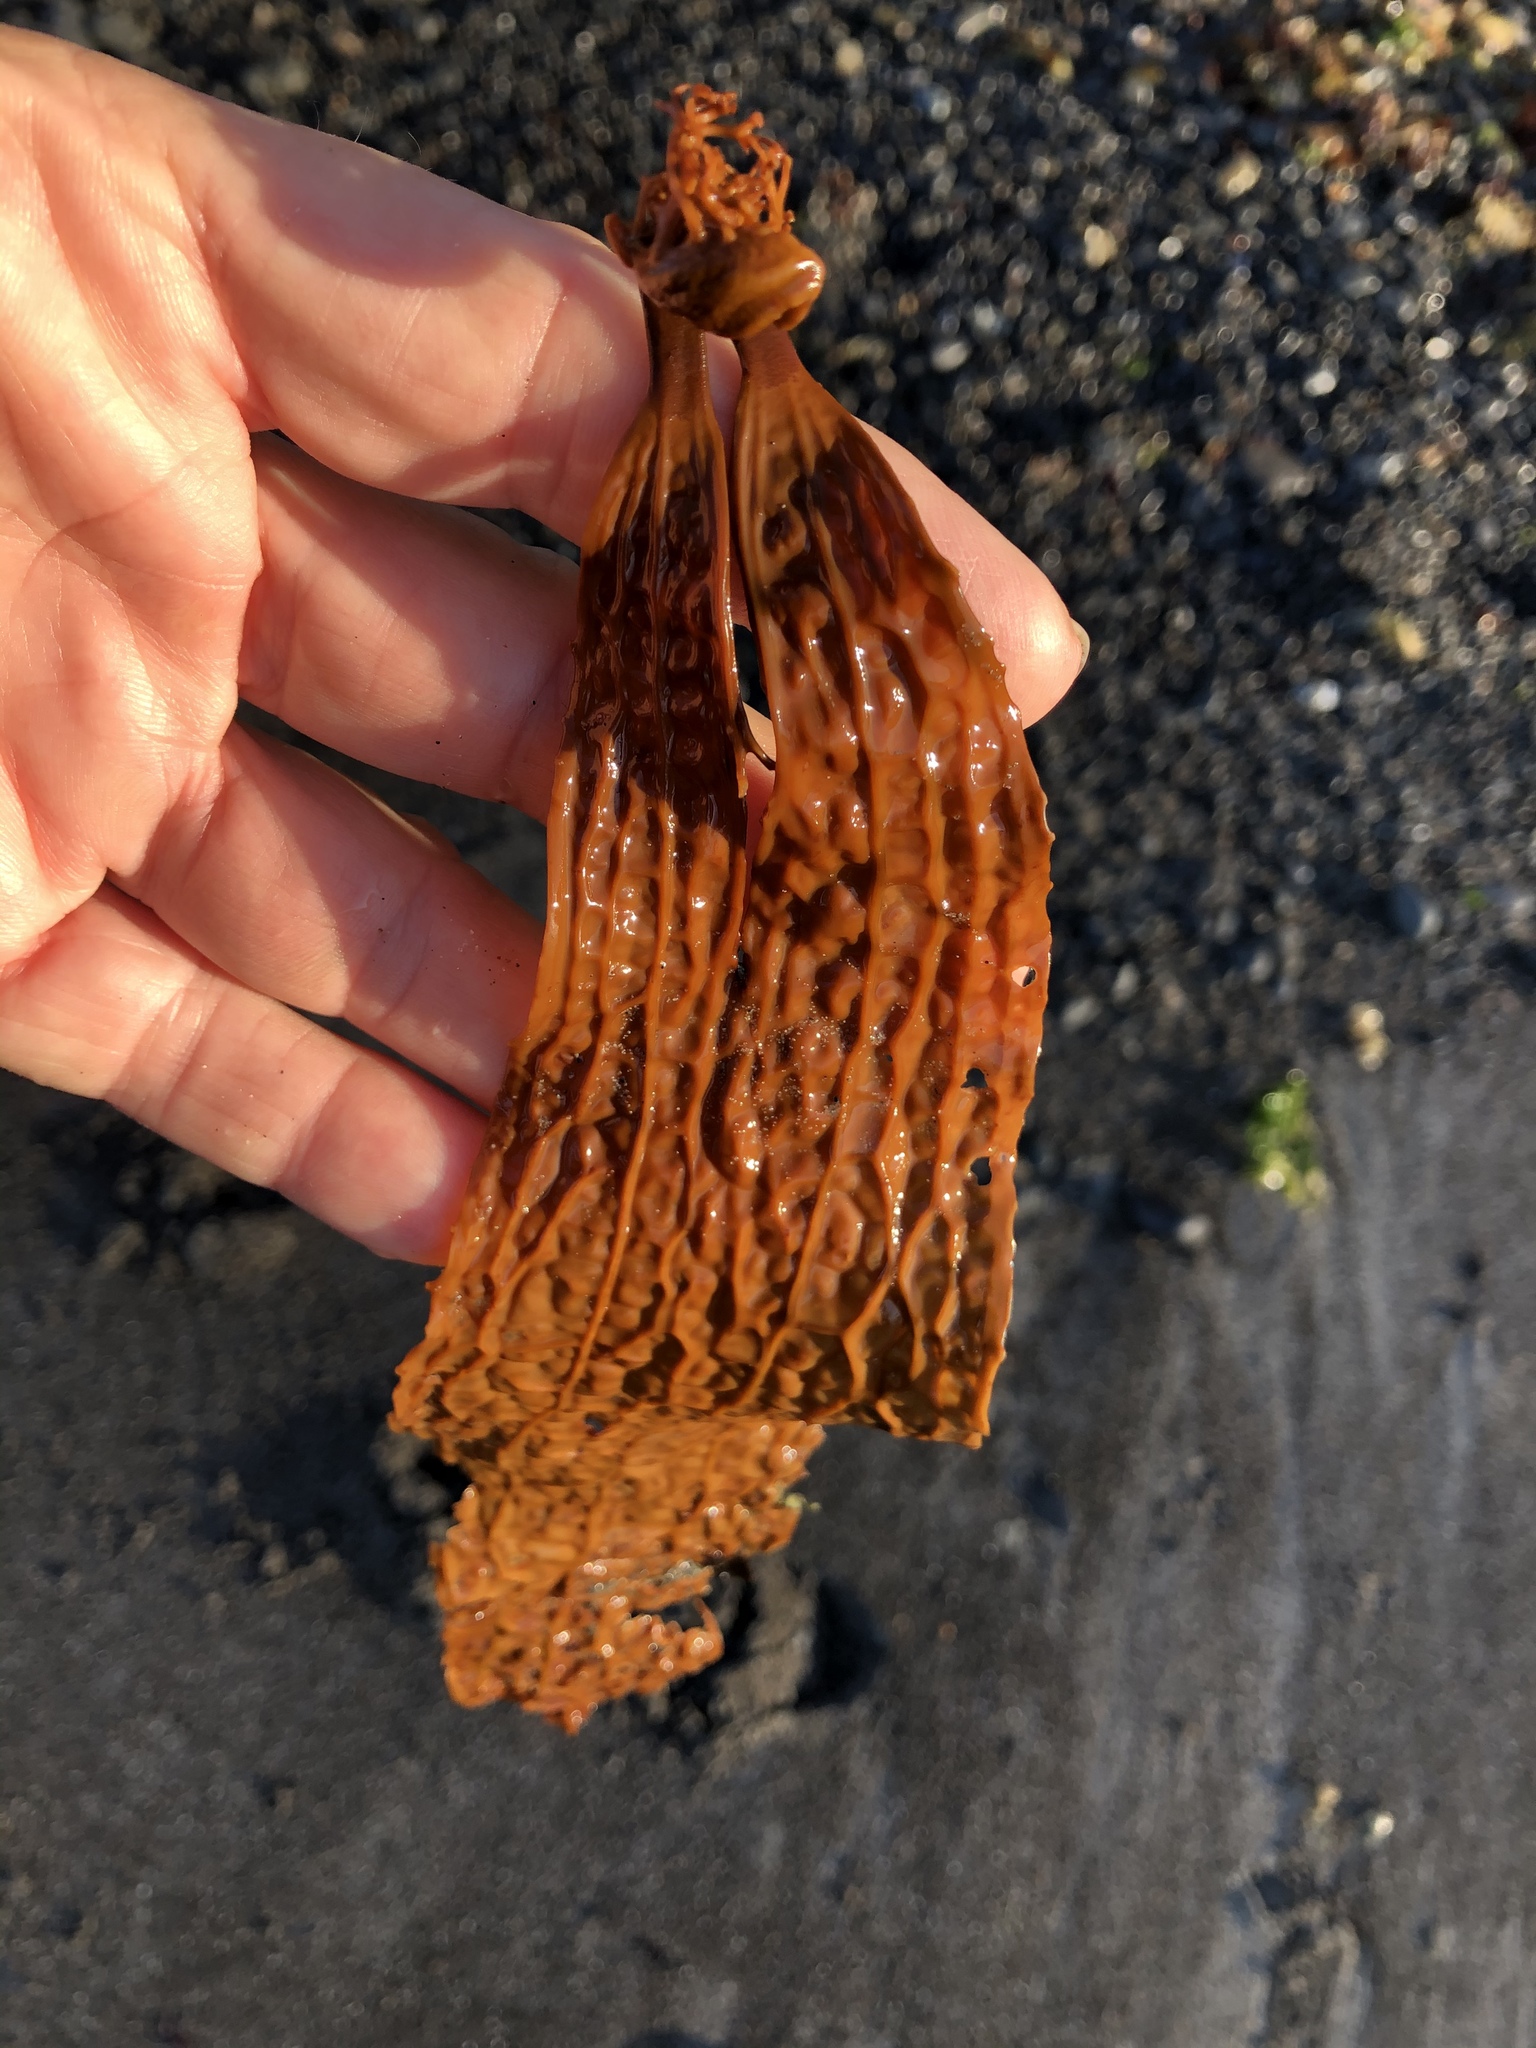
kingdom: Chromista
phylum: Ochrophyta
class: Phaeophyceae
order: Laminariales
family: Costariaceae
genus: Dictyoneurum
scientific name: Dictyoneurum californicum
